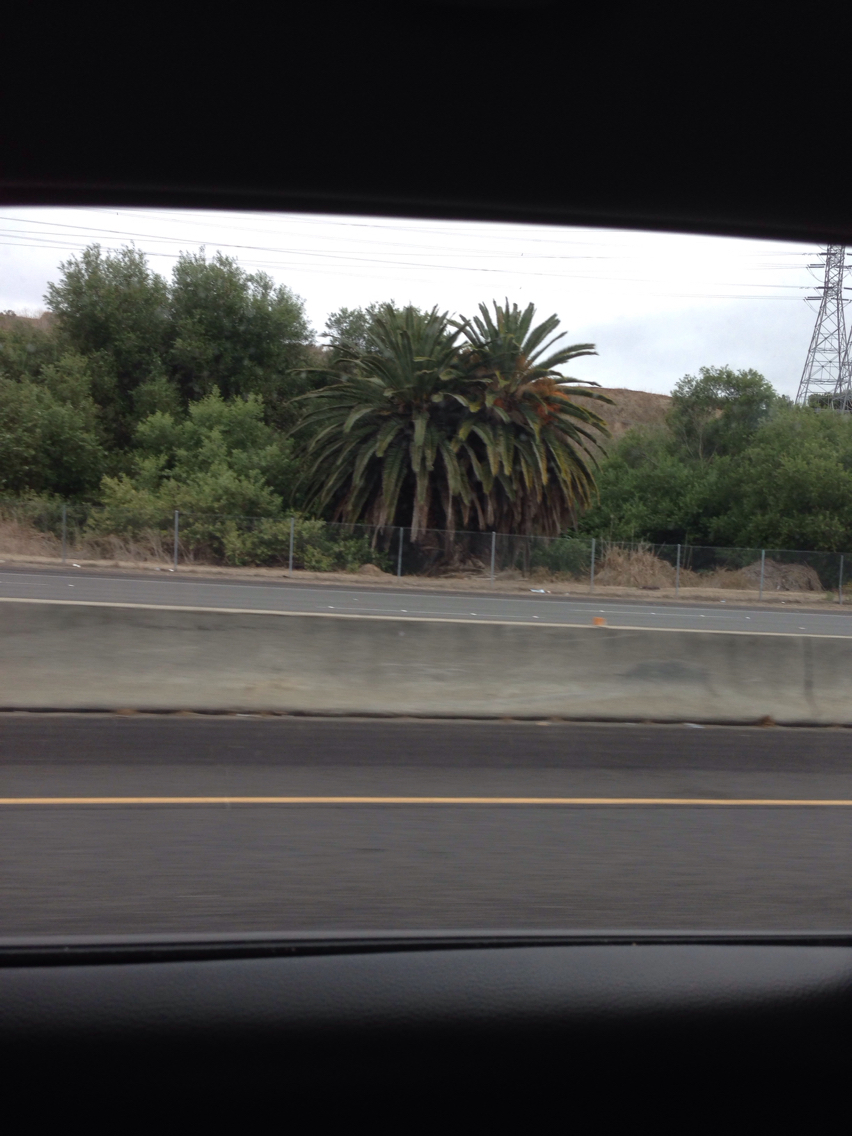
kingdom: Plantae
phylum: Tracheophyta
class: Liliopsida
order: Arecales
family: Arecaceae
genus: Phoenix
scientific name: Phoenix canariensis
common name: Canary island date palm
